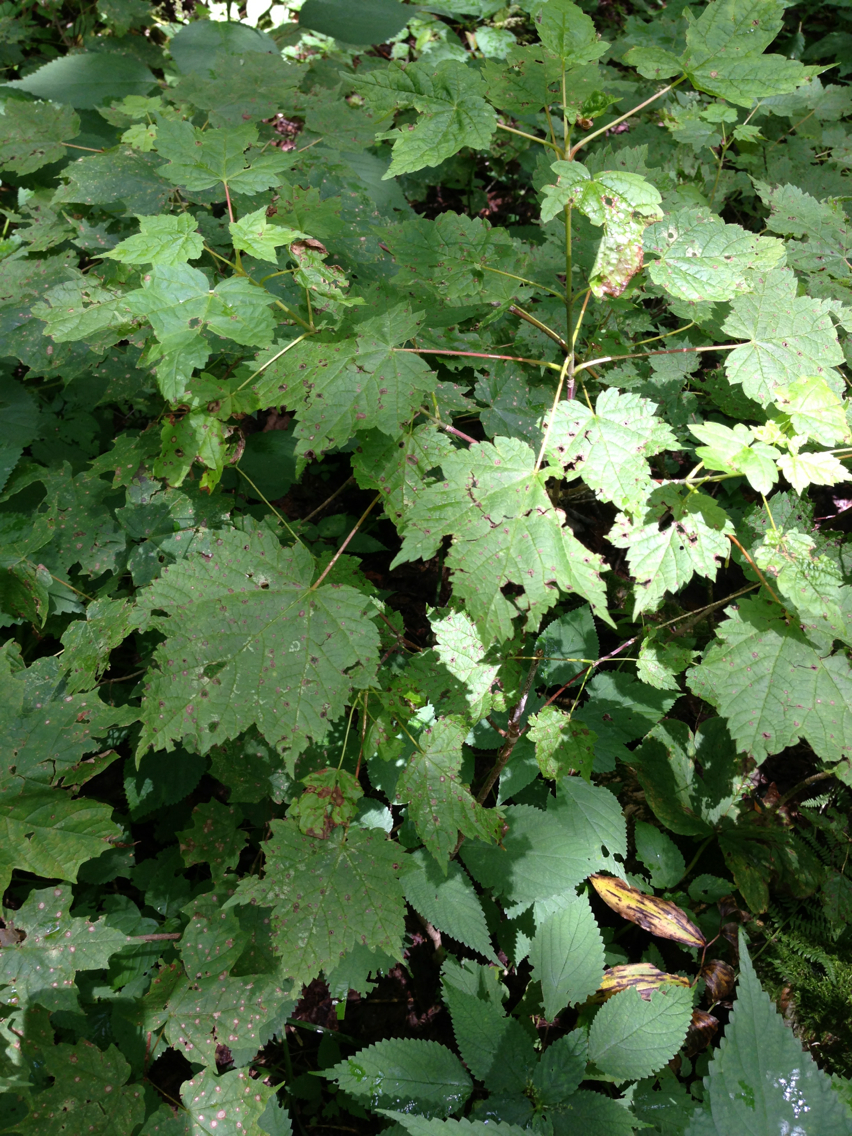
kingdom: Plantae
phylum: Tracheophyta
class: Magnoliopsida
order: Sapindales
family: Sapindaceae
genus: Acer
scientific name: Acer spicatum
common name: Mountain maple
